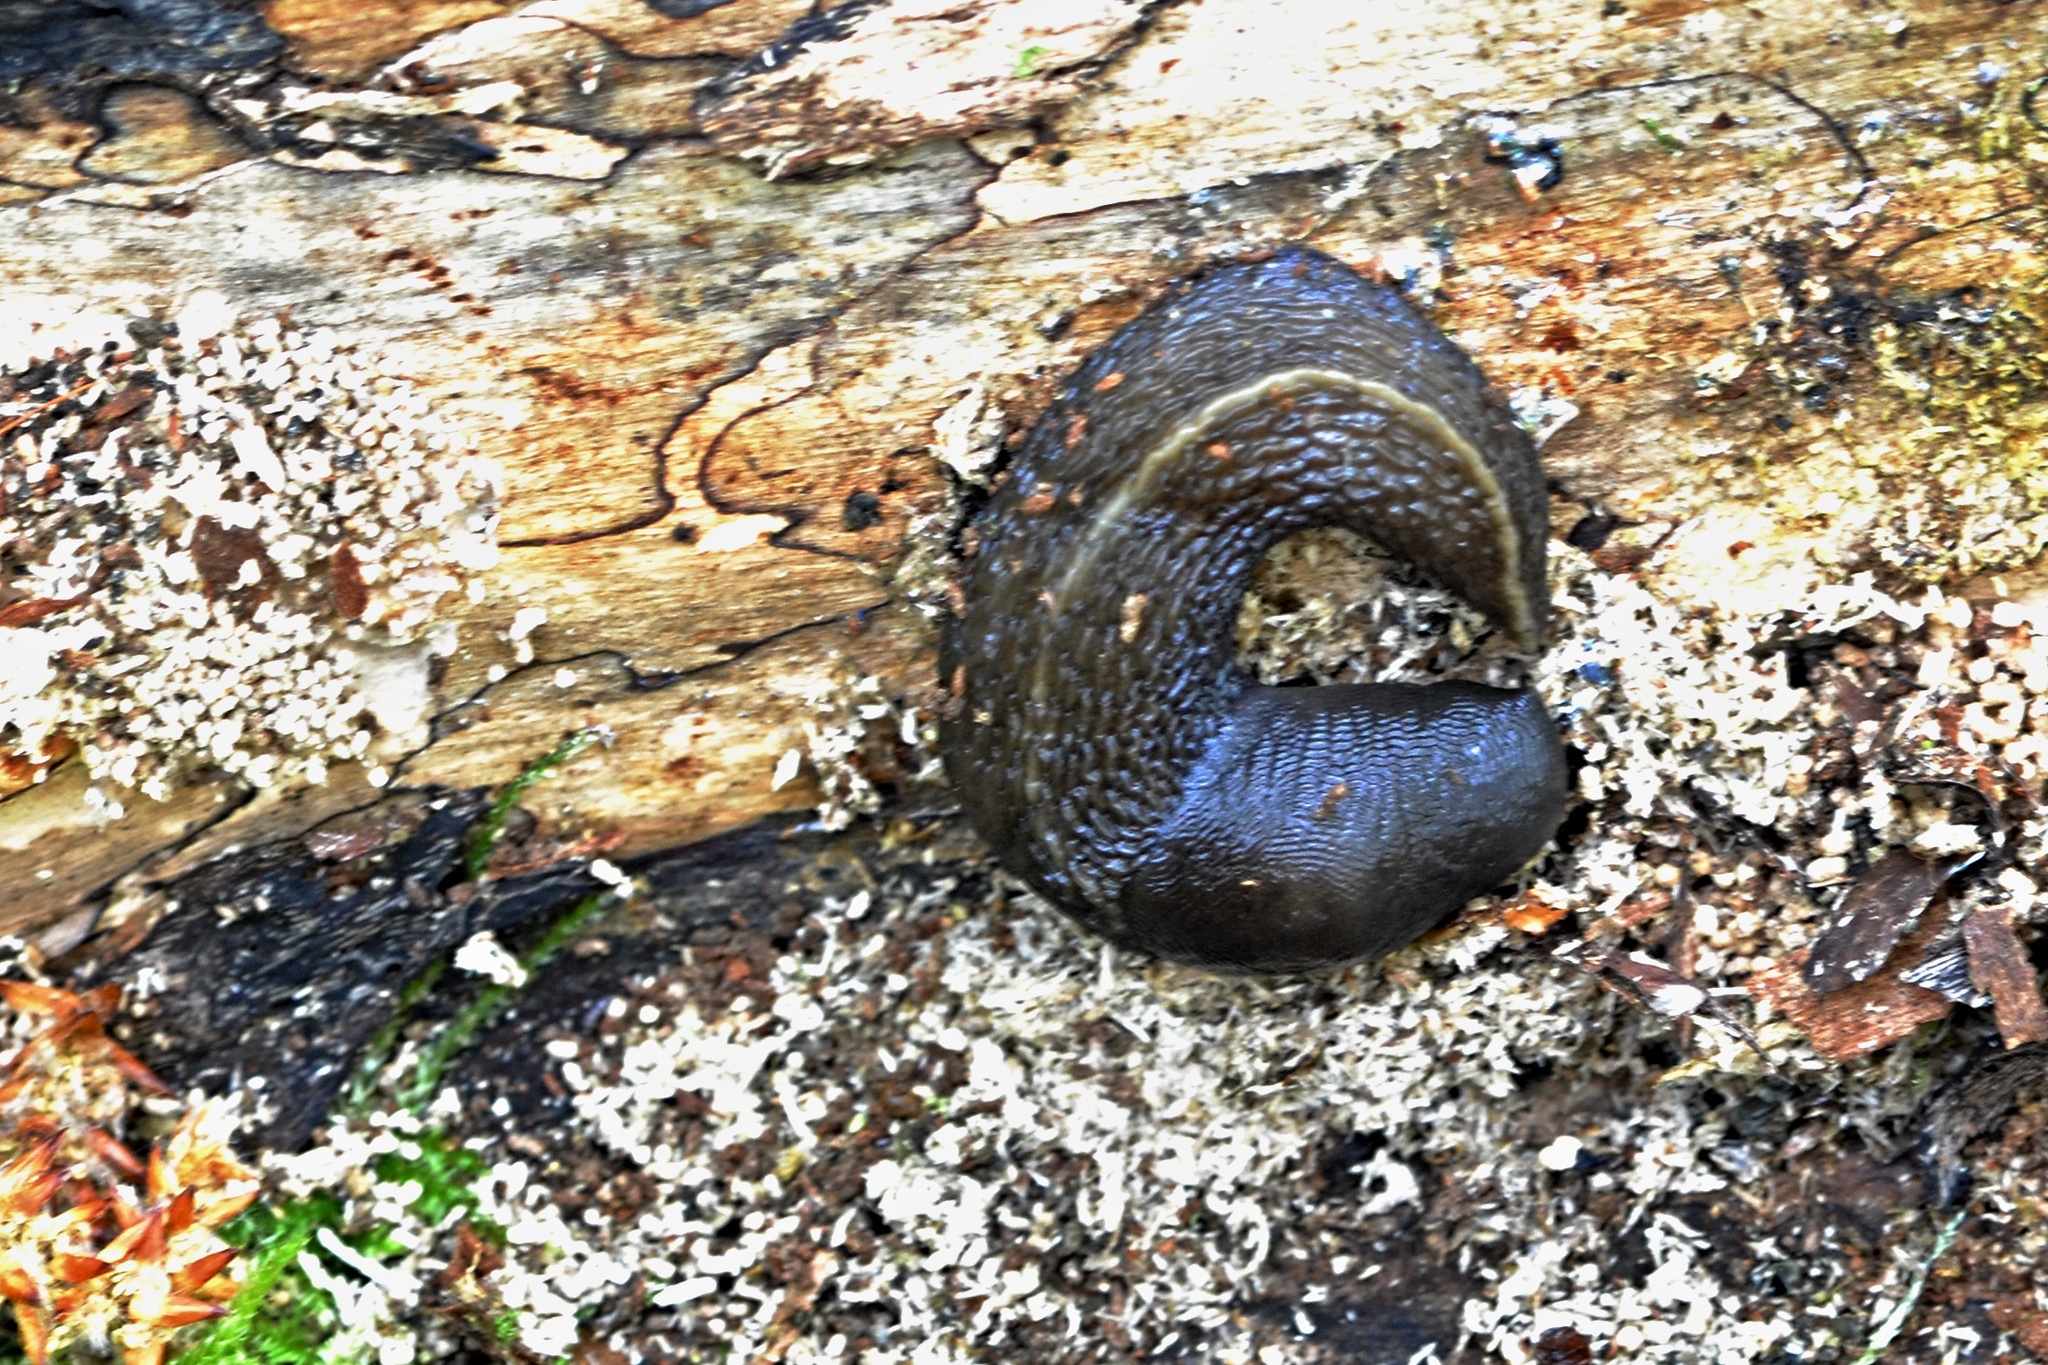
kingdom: Animalia
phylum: Mollusca
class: Gastropoda
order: Stylommatophora
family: Limacidae
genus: Limax
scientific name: Limax cinereoniger
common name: Ash-black slug
